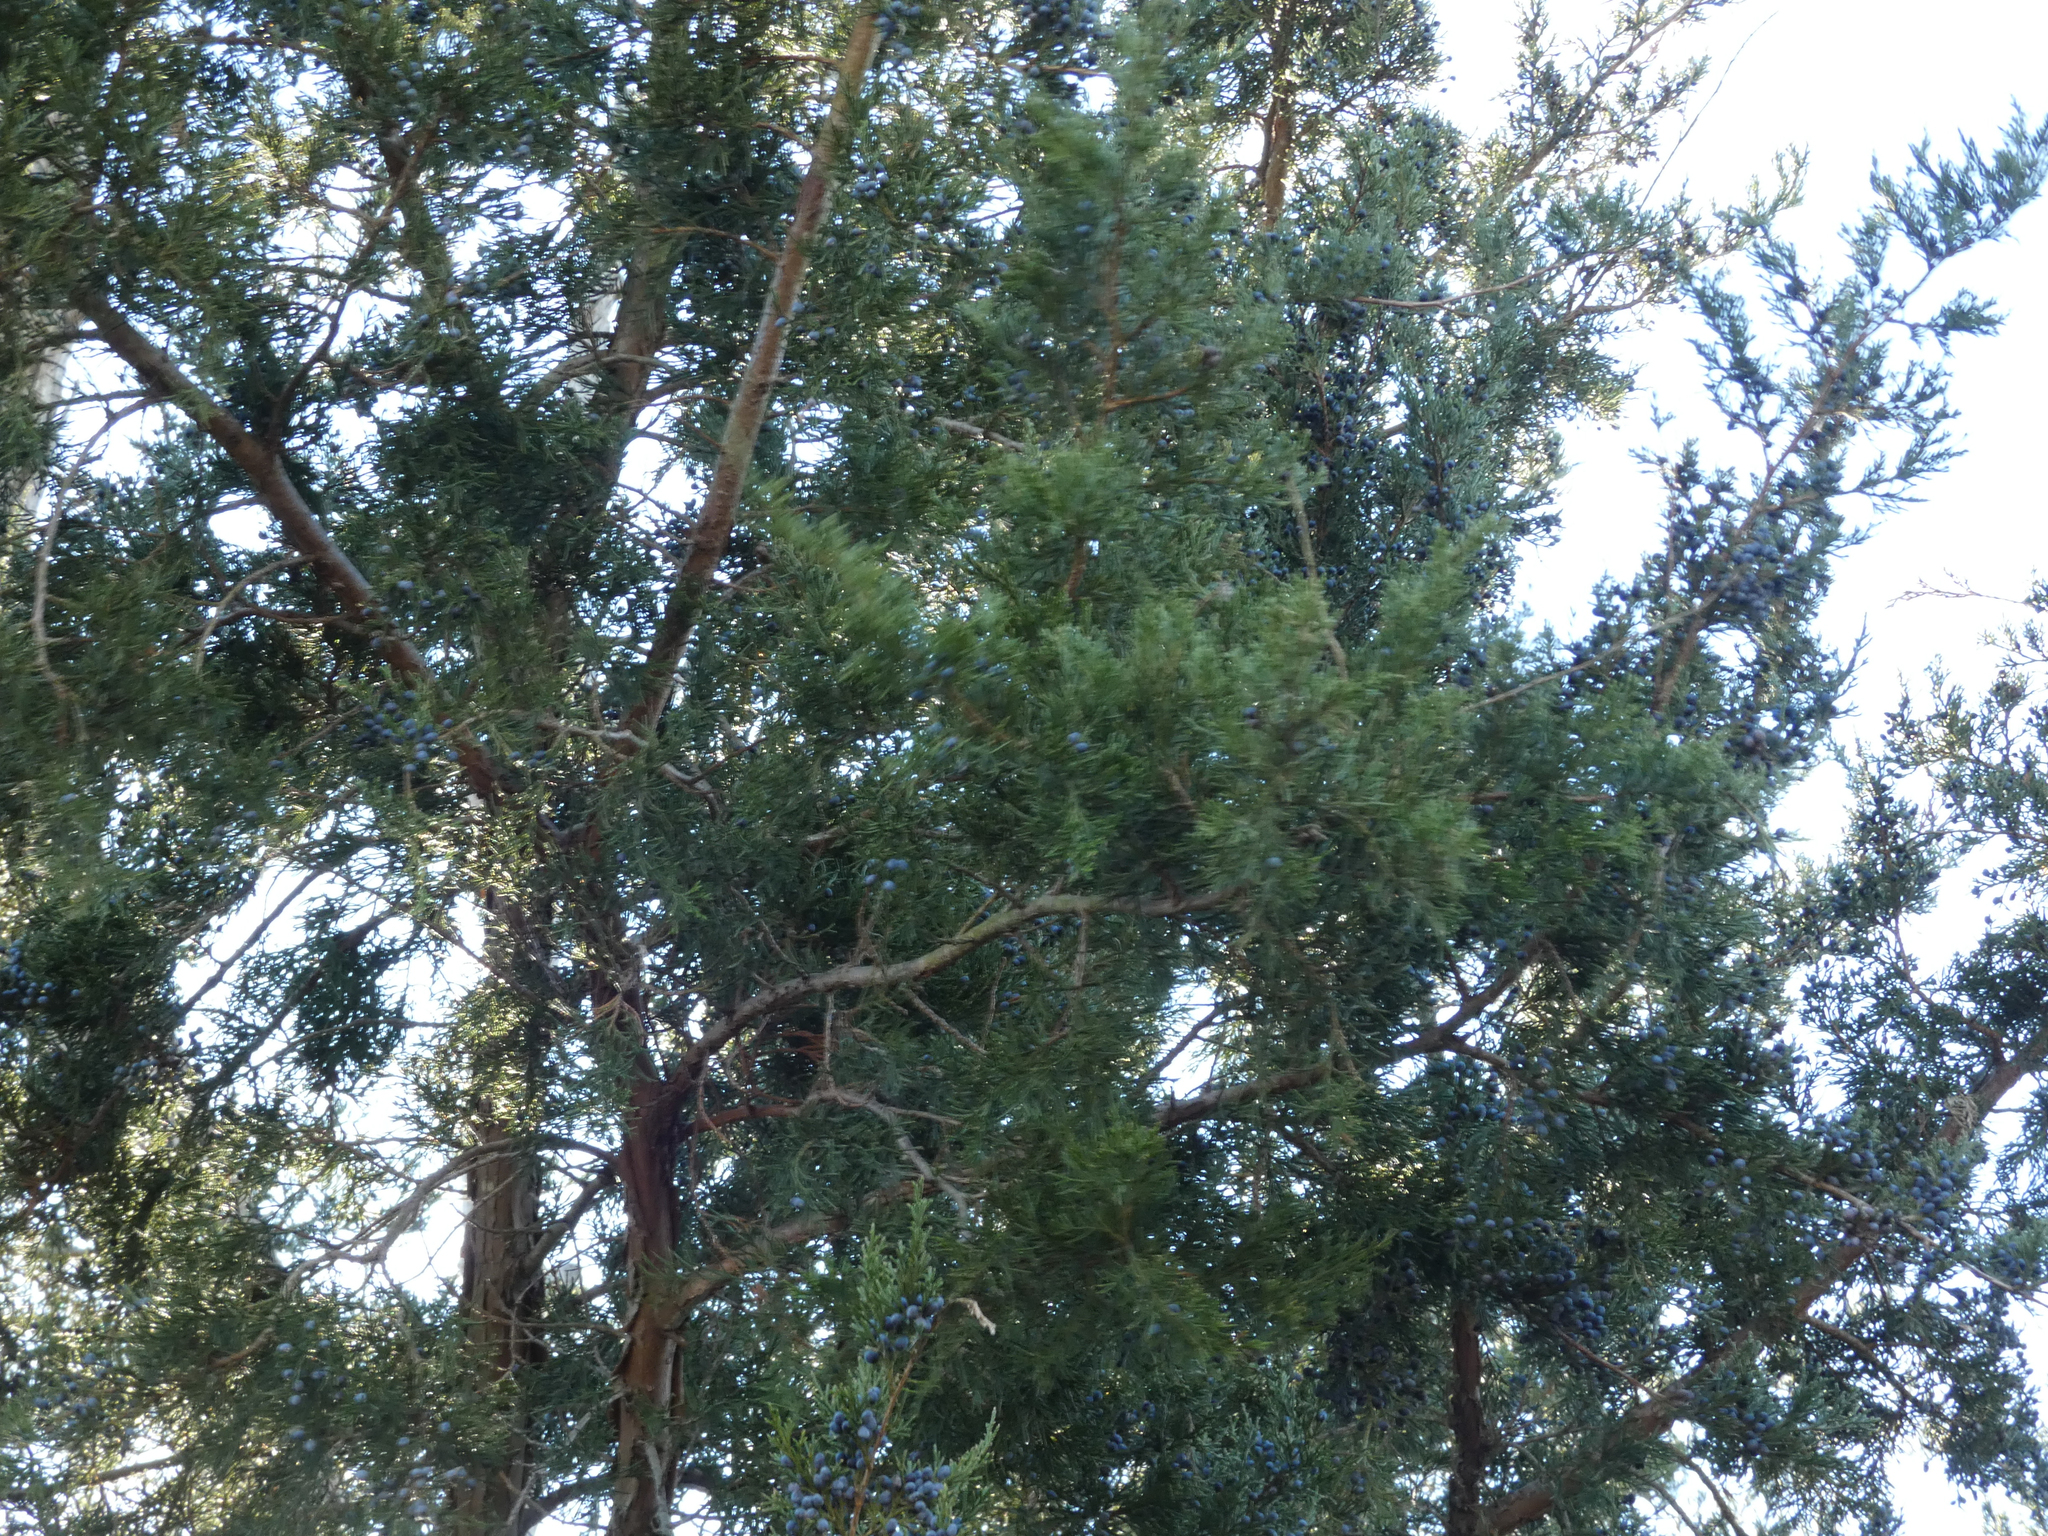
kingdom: Plantae
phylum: Tracheophyta
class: Pinopsida
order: Pinales
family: Cupressaceae
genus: Juniperus
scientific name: Juniperus virginiana
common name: Red juniper
